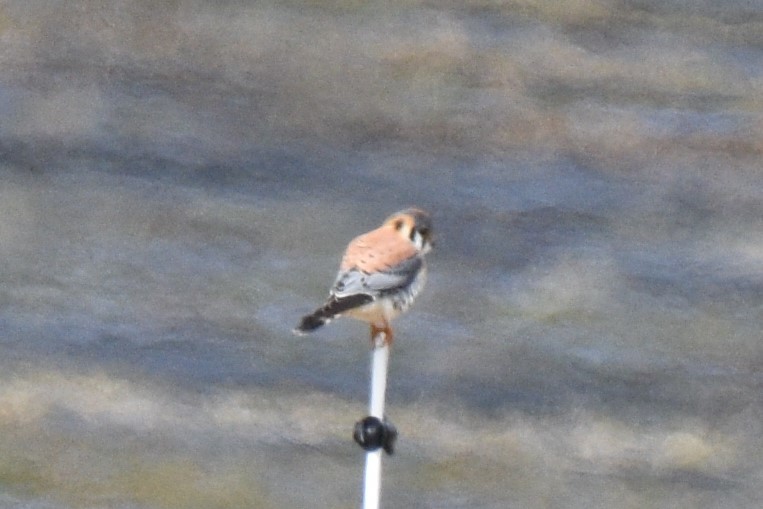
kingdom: Animalia
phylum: Chordata
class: Aves
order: Falconiformes
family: Falconidae
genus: Falco
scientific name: Falco sparverius
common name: American kestrel
